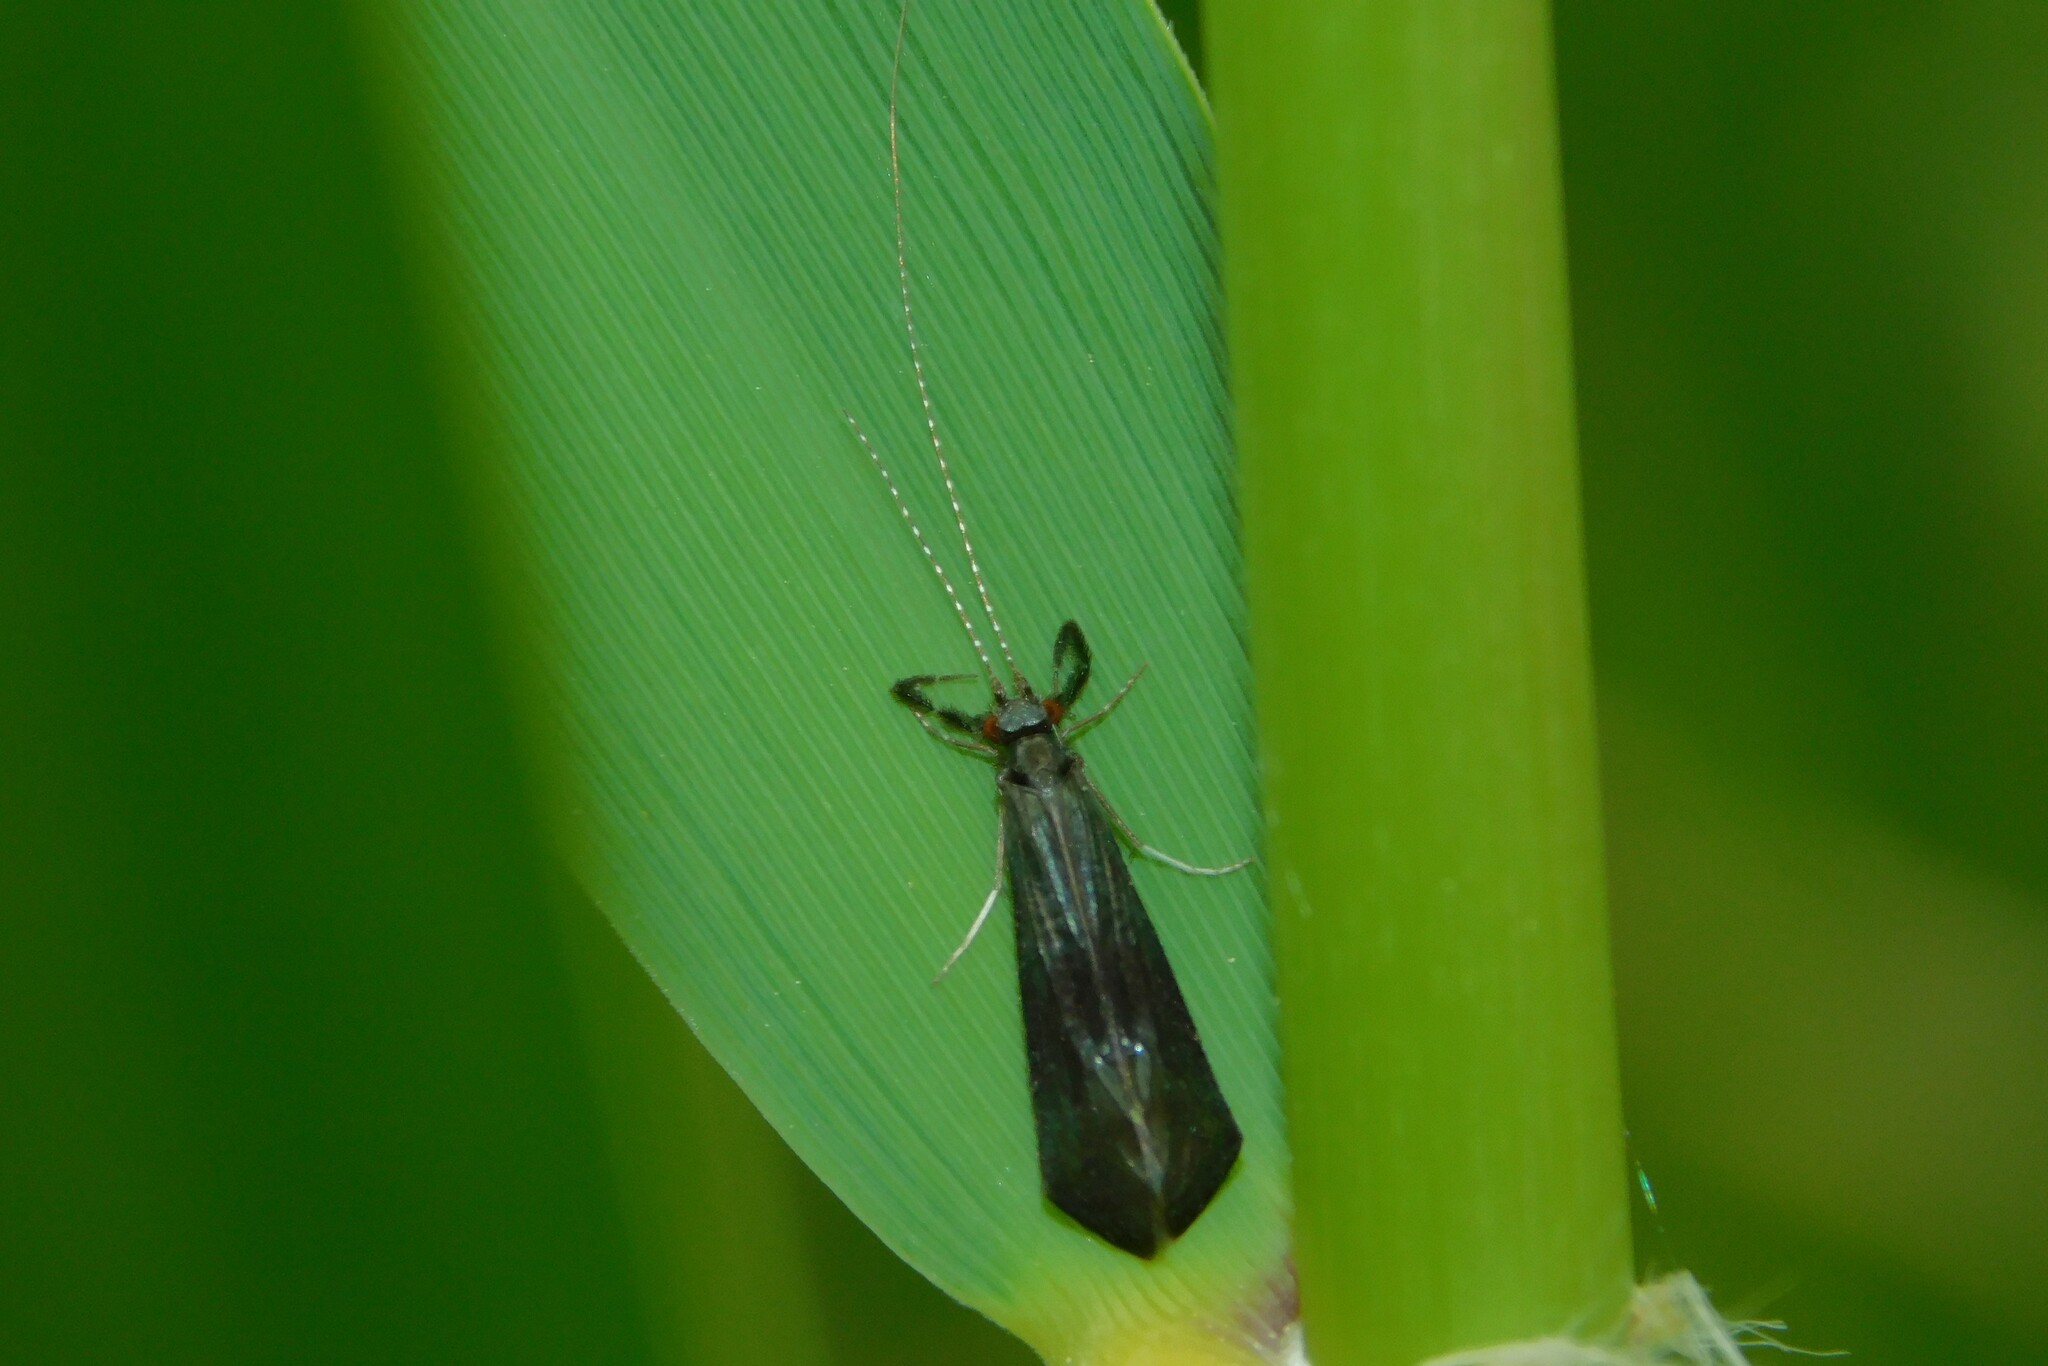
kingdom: Animalia
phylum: Arthropoda
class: Insecta
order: Trichoptera
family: Leptoceridae
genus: Mystacides
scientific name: Mystacides azureus
